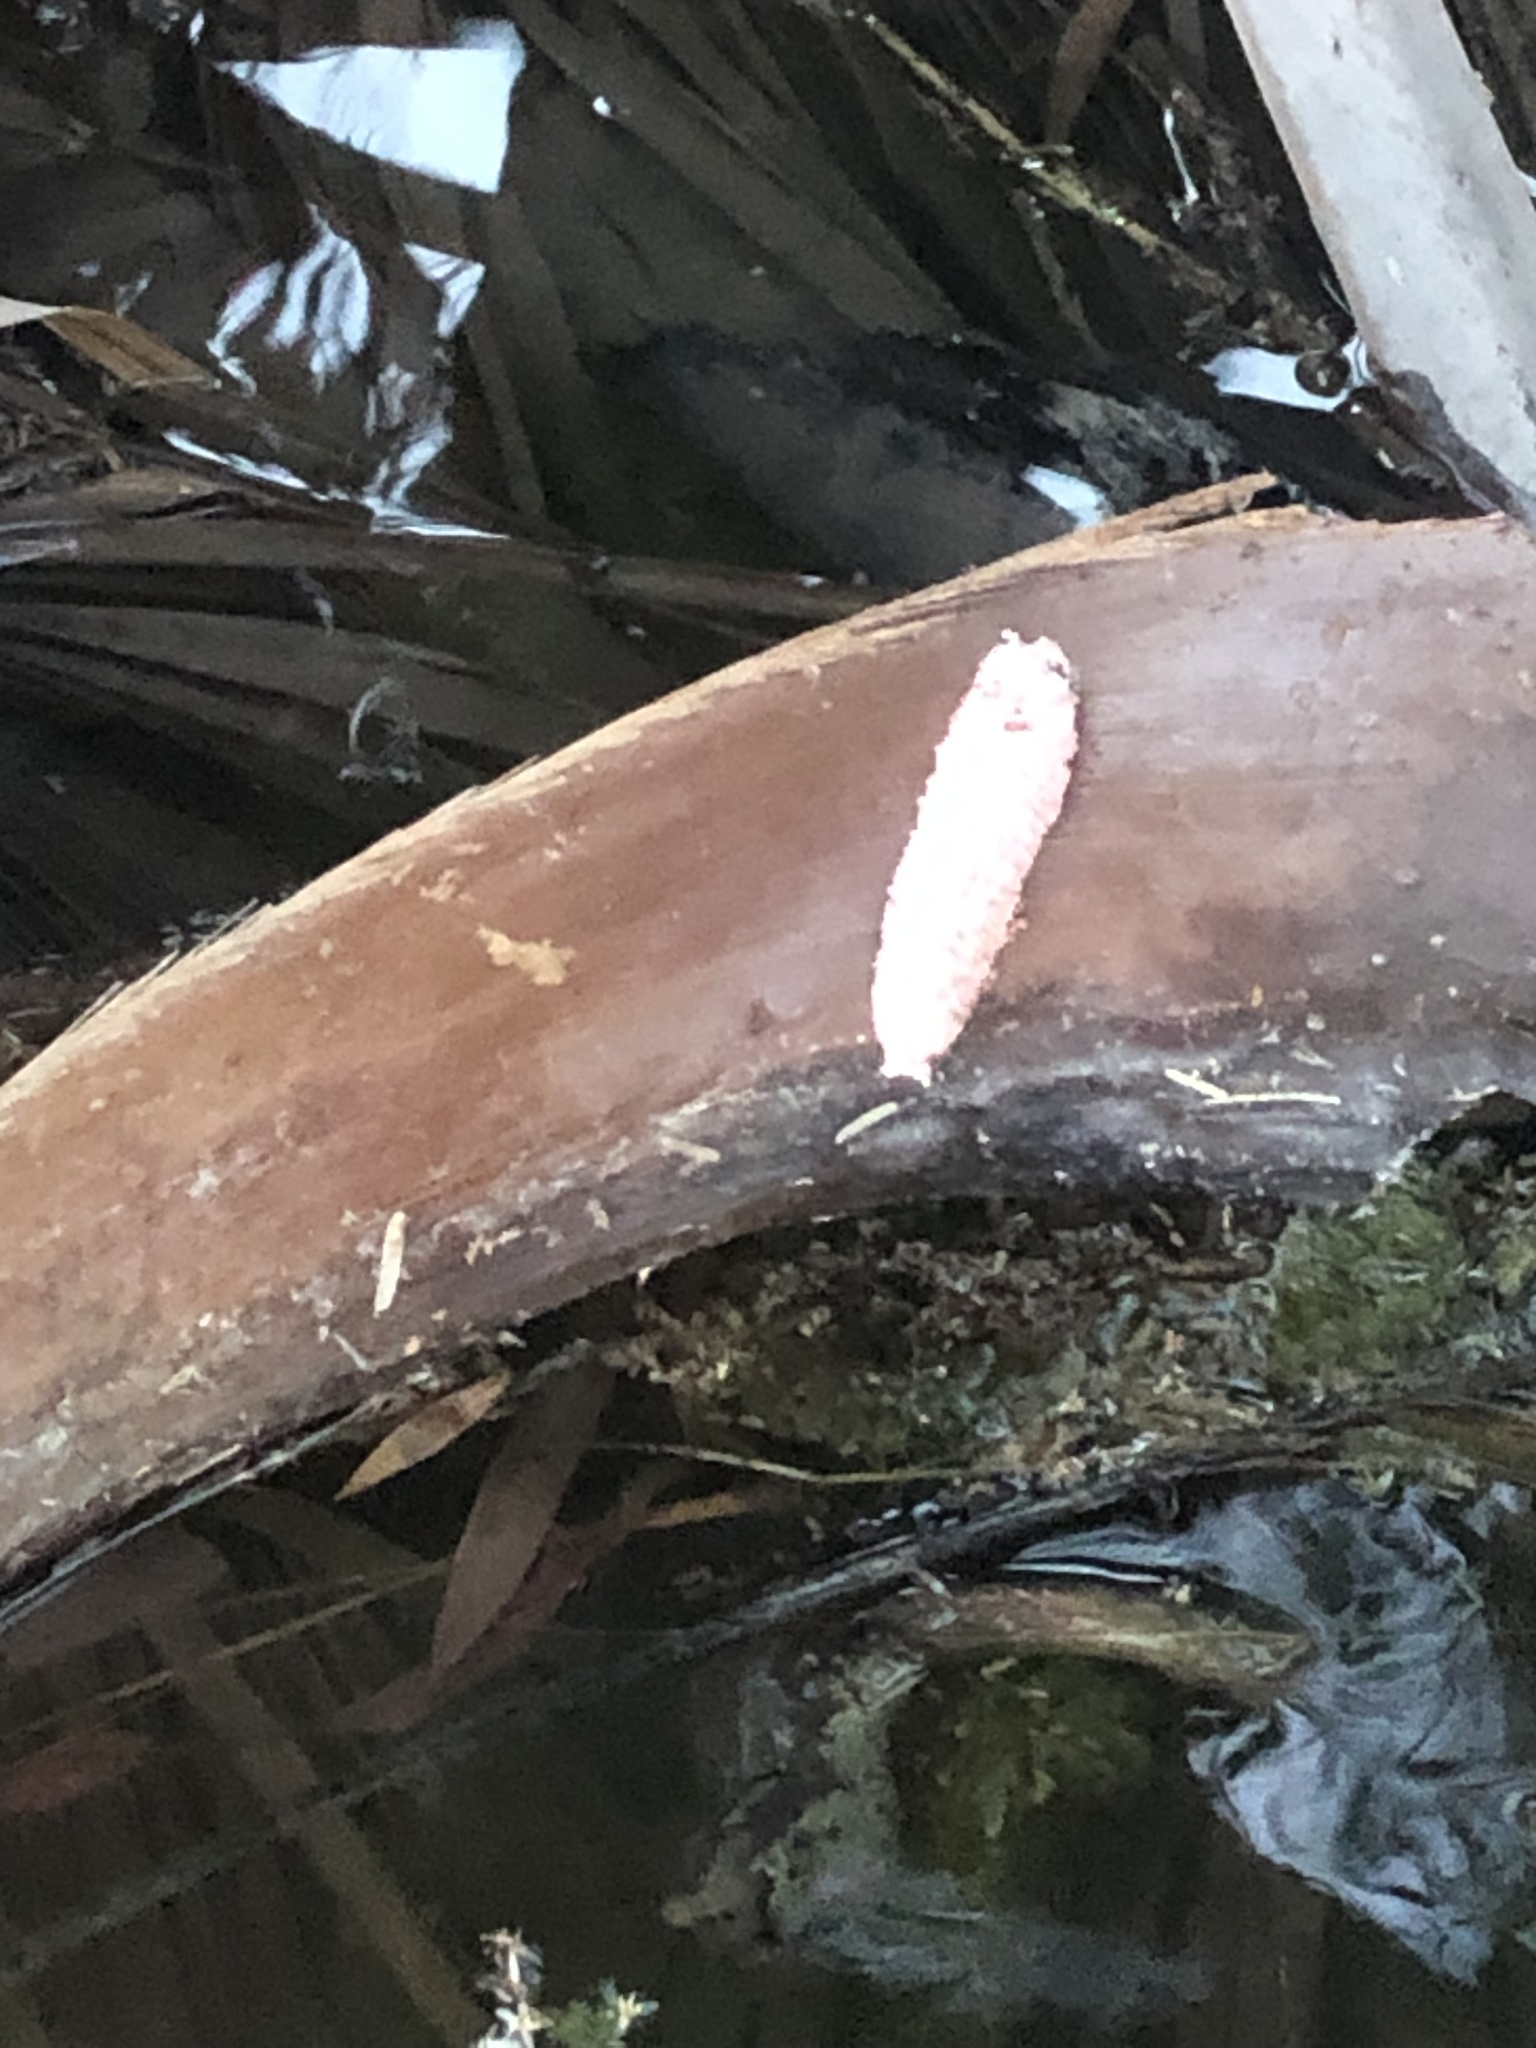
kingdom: Animalia
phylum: Mollusca
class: Gastropoda
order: Architaenioglossa
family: Ampullariidae
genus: Pomacea
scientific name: Pomacea maculata
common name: Giant applesnail
